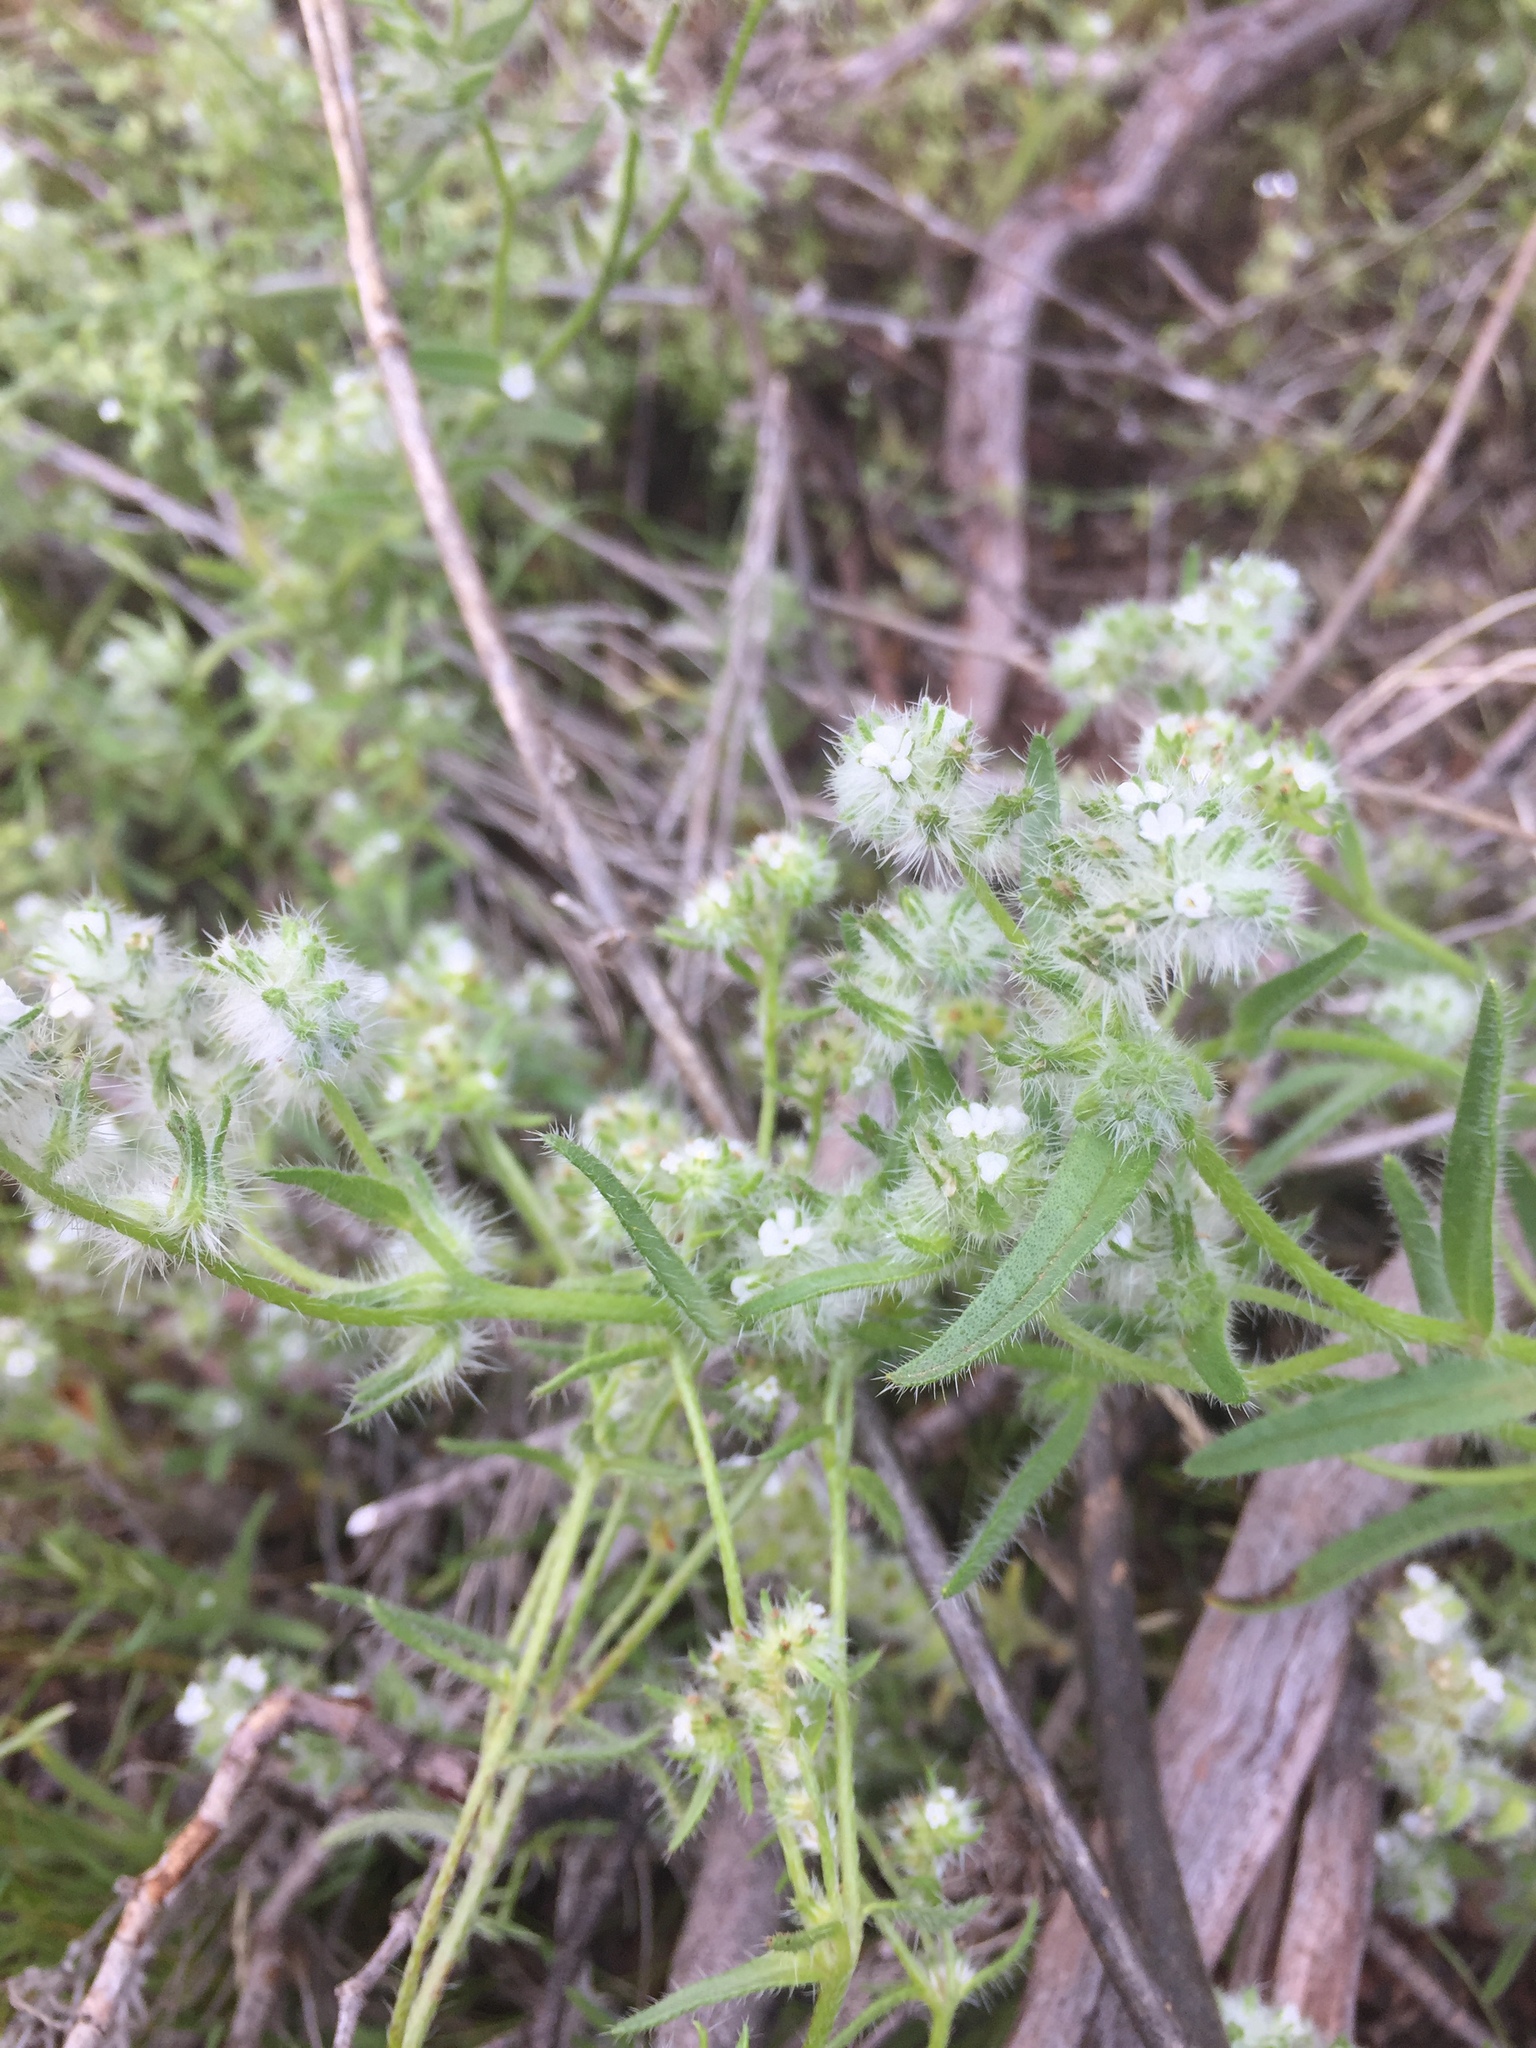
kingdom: Plantae
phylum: Tracheophyta
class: Magnoliopsida
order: Boraginales
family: Boraginaceae
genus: Cryptantha
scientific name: Cryptantha
